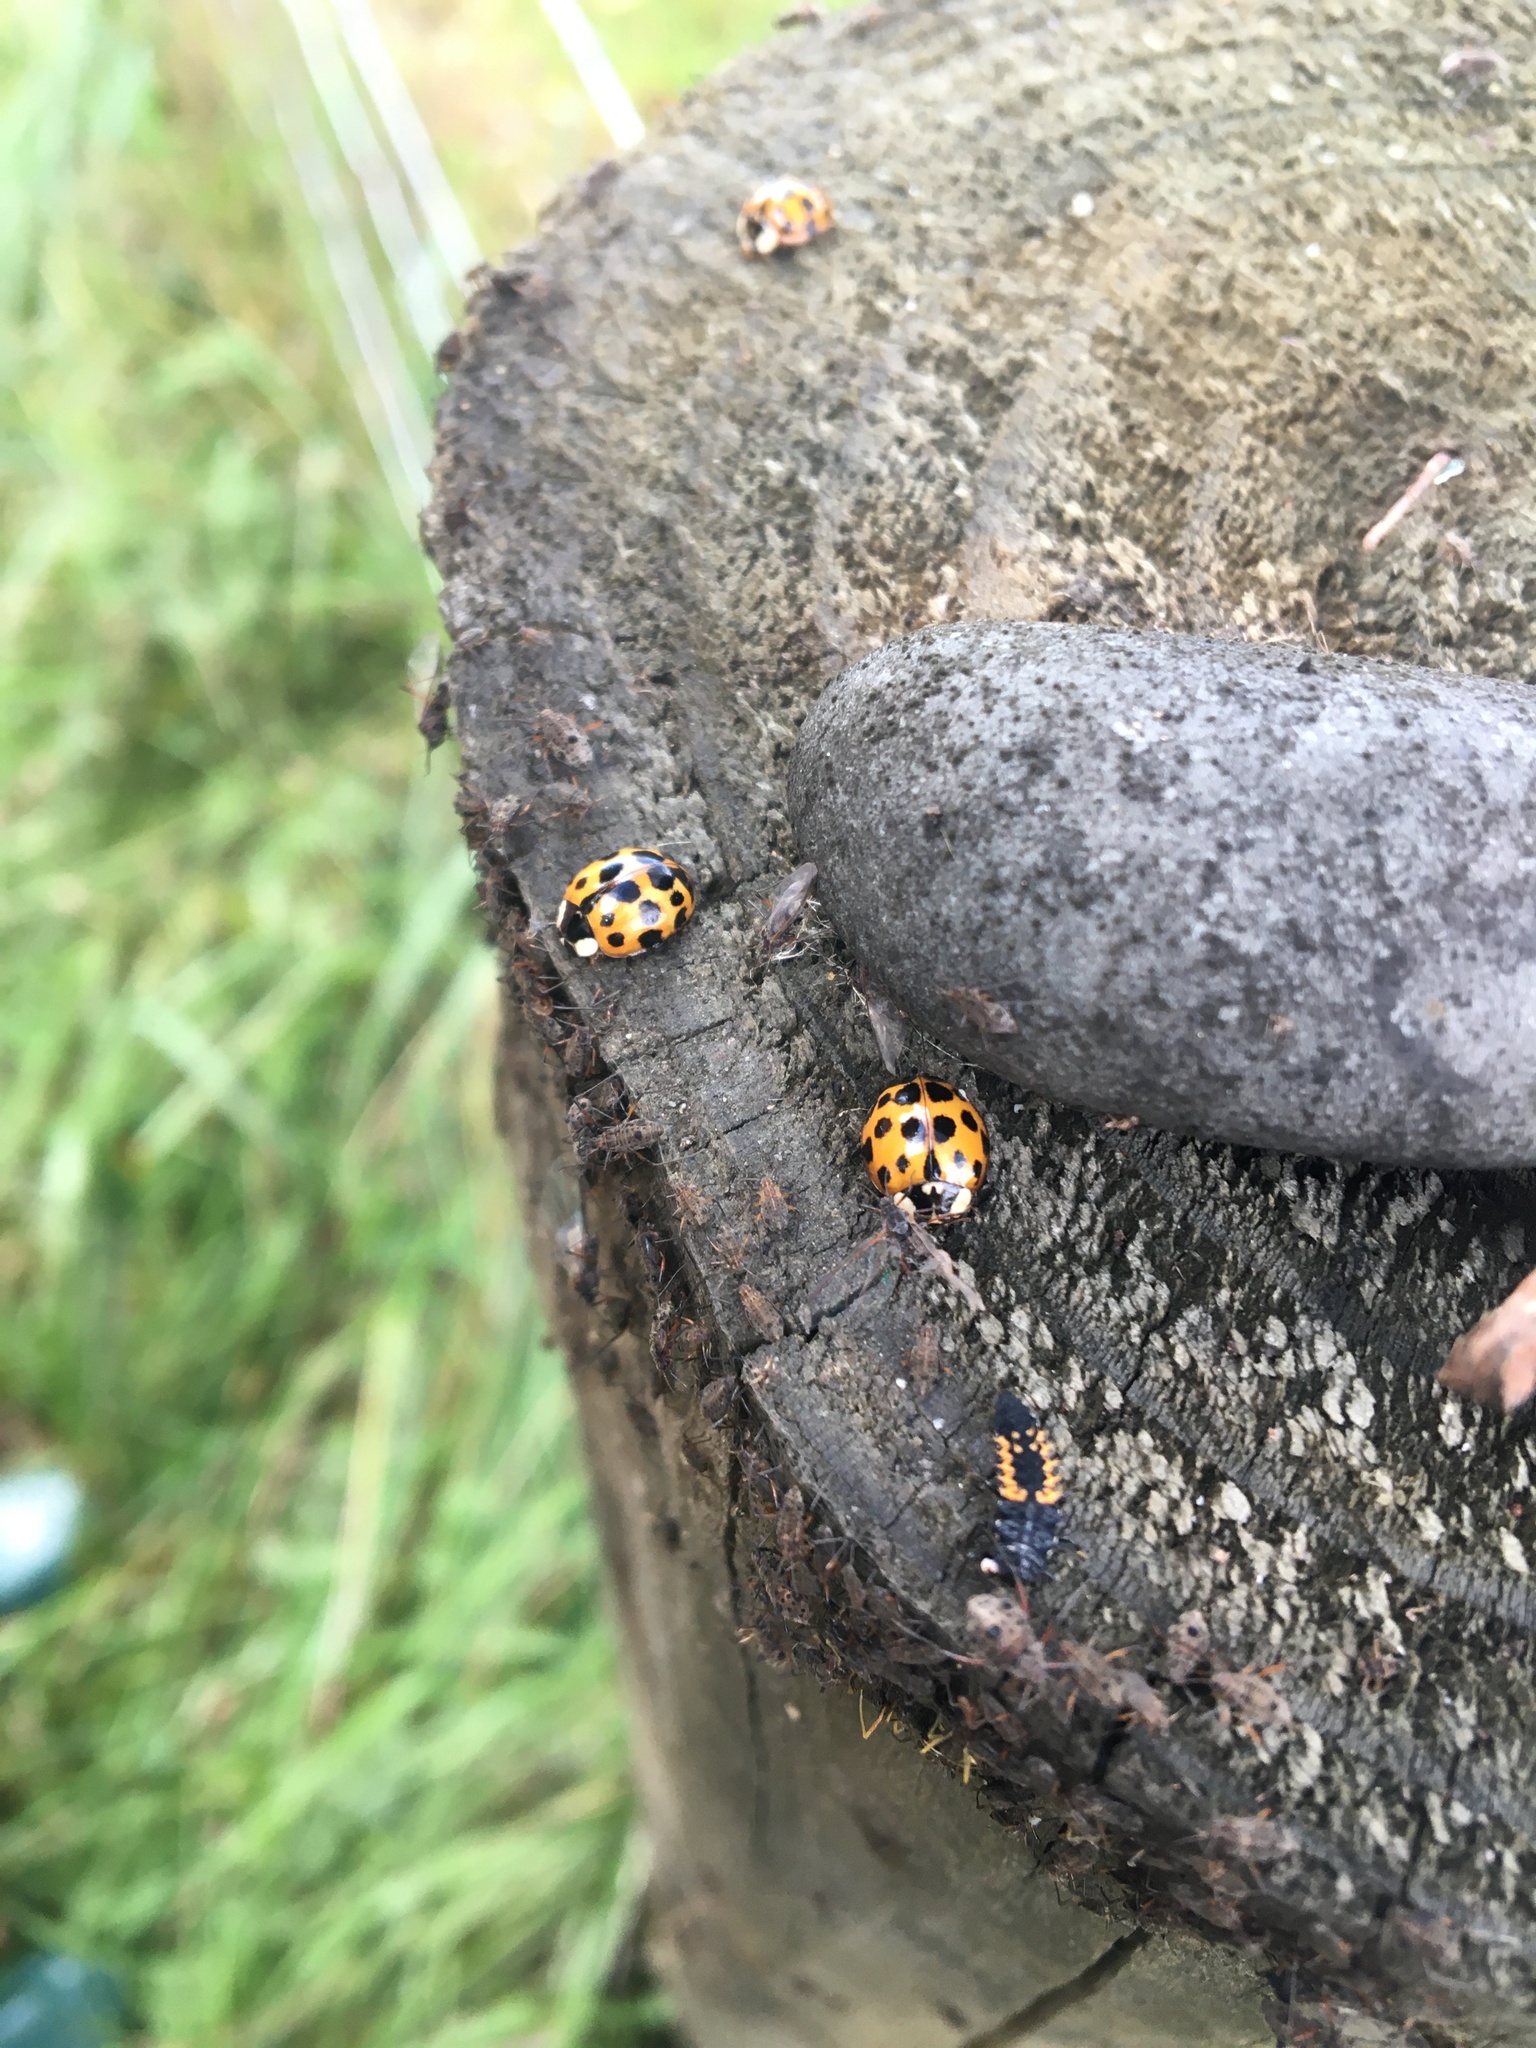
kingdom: Animalia
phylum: Arthropoda
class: Insecta
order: Coleoptera
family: Coccinellidae
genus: Harmonia
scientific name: Harmonia axyridis
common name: Harlequin ladybird
